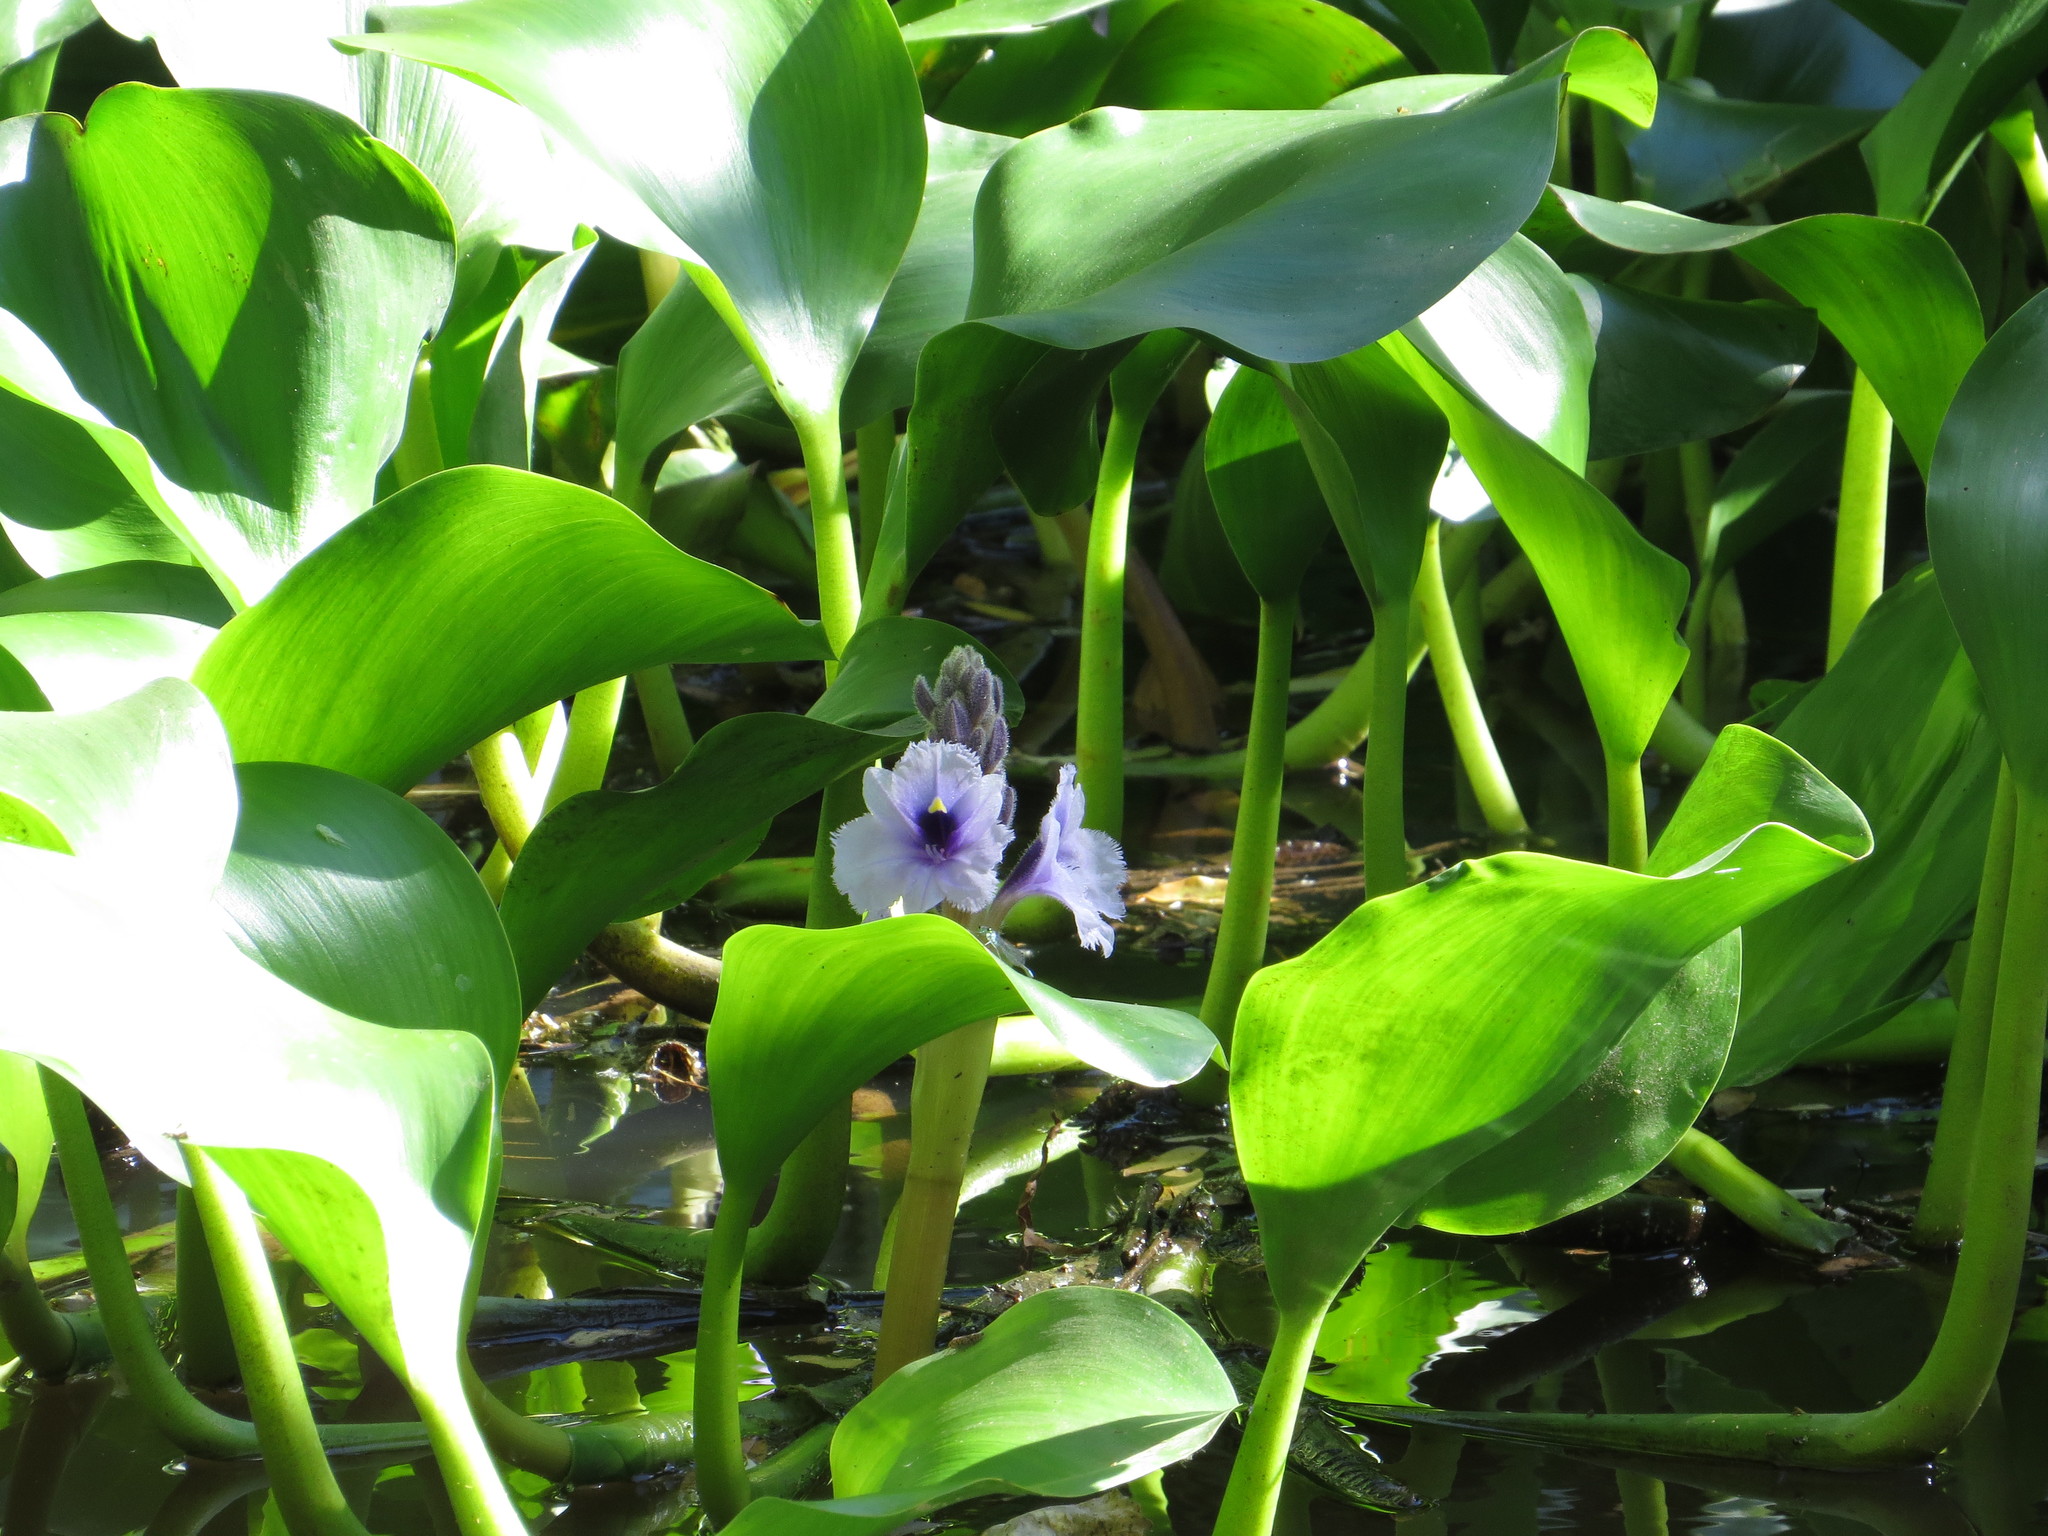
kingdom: Plantae
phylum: Tracheophyta
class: Liliopsida
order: Commelinales
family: Pontederiaceae
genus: Pontederia
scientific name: Pontederia azurea
